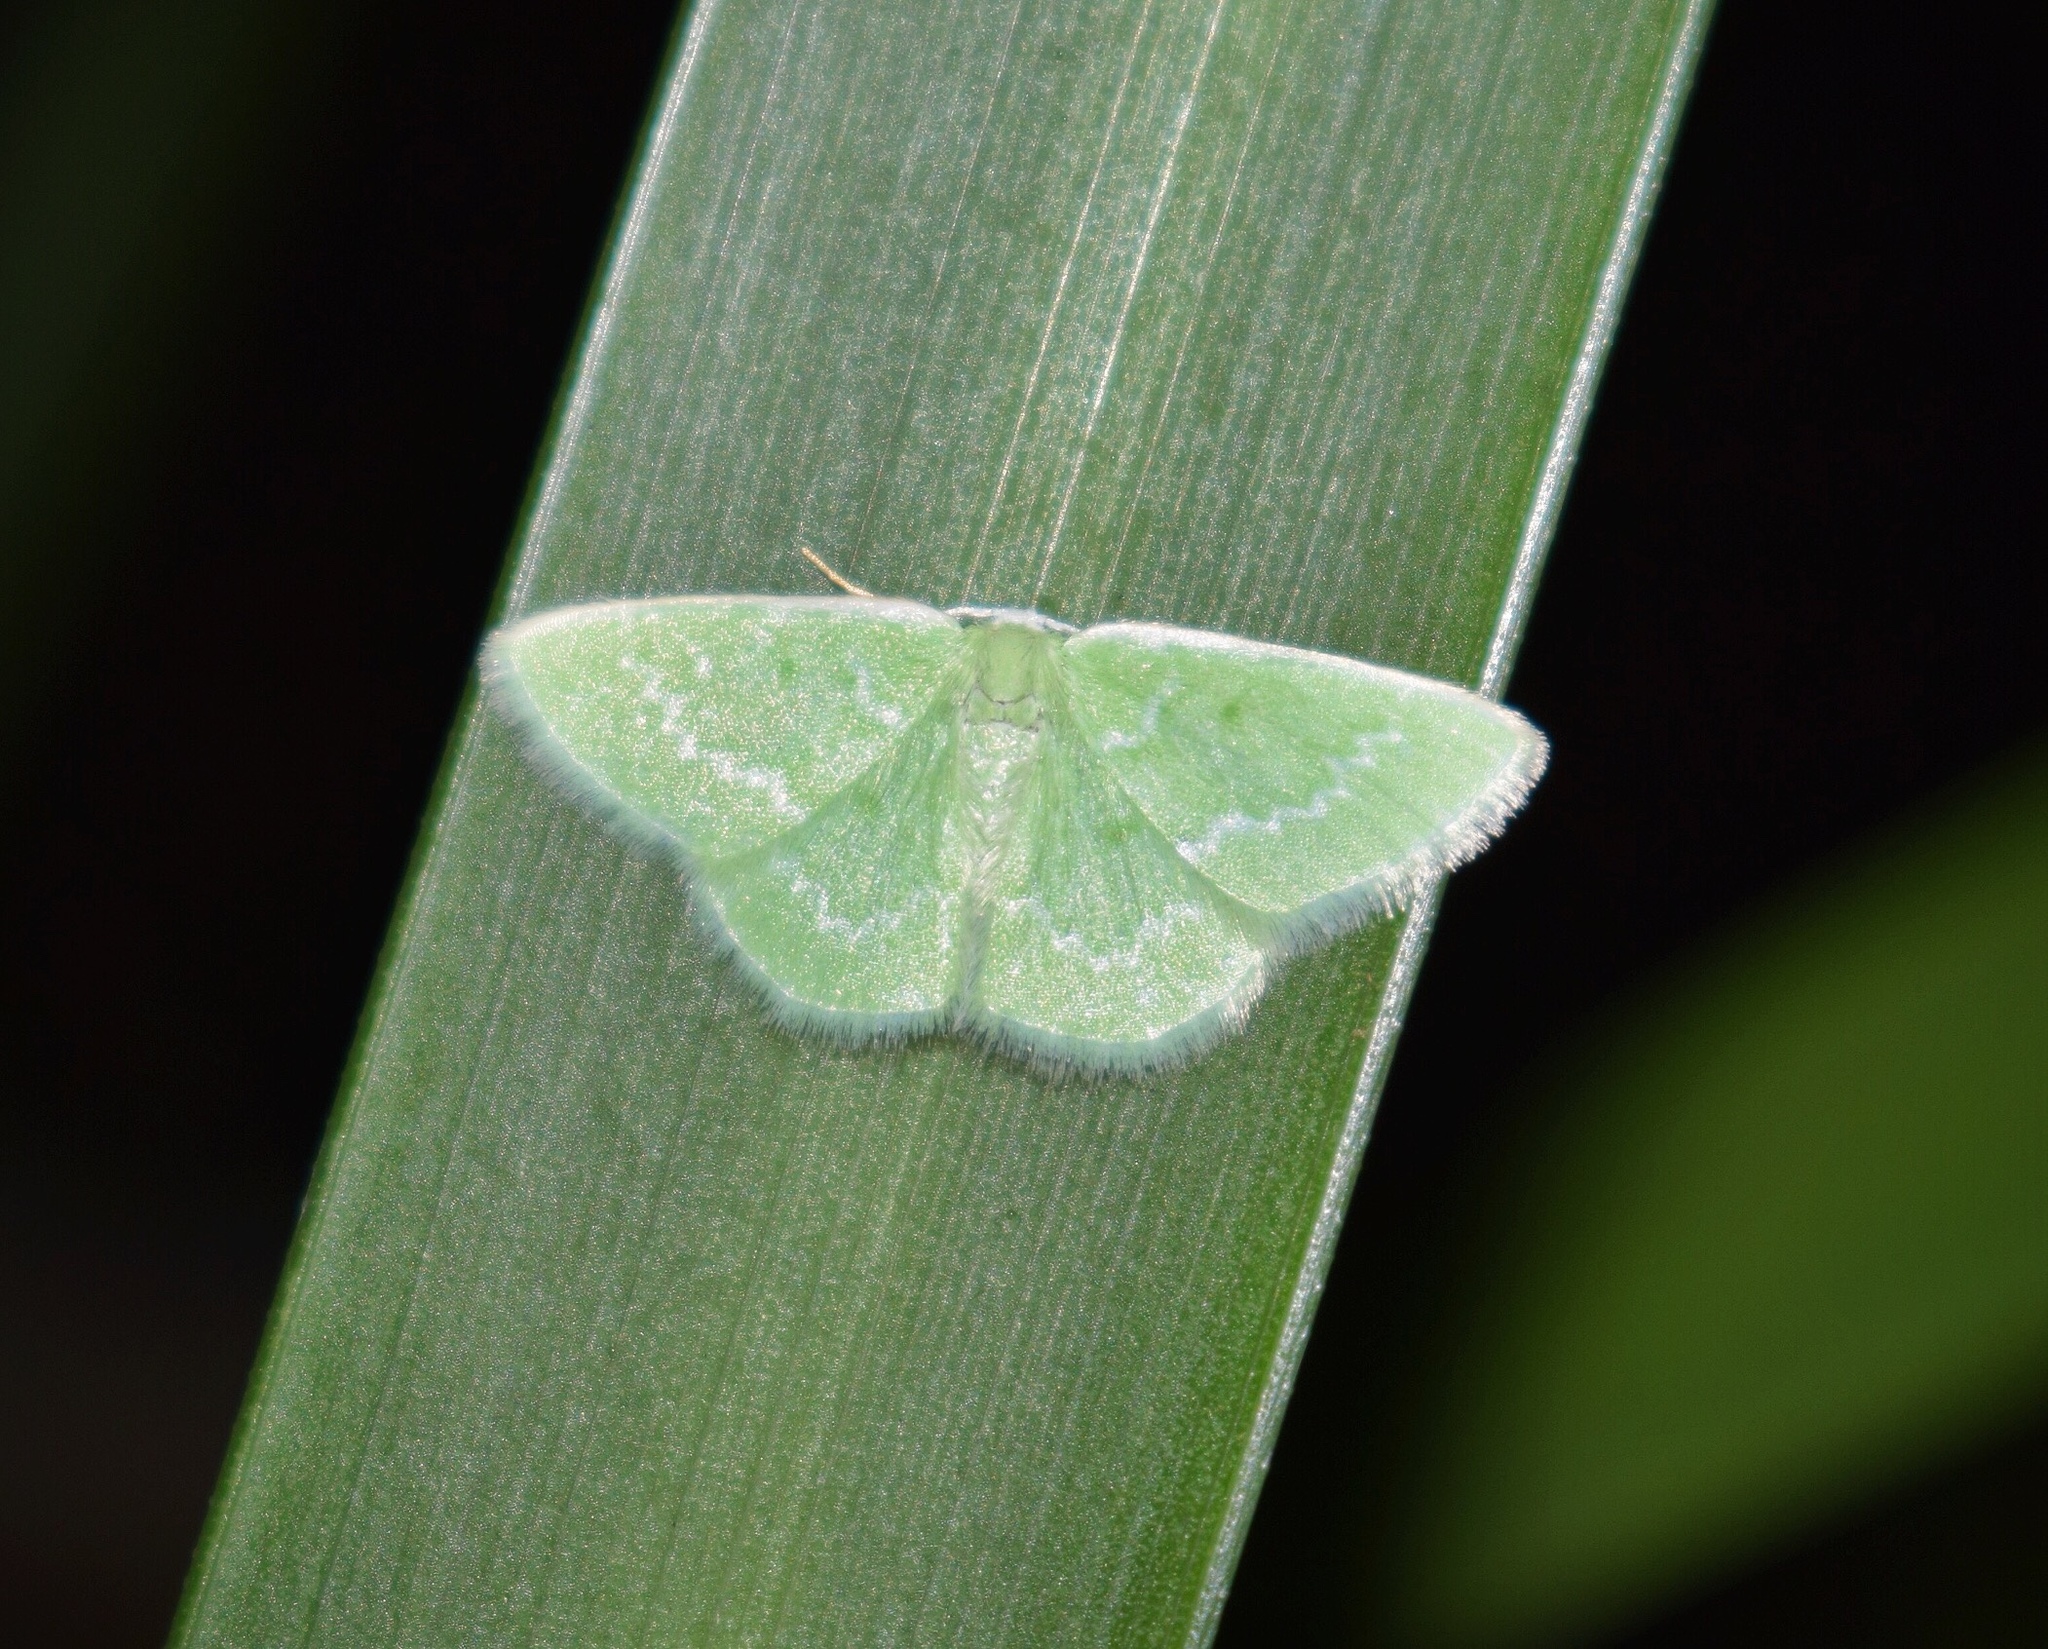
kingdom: Animalia
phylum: Arthropoda
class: Insecta
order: Lepidoptera
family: Geometridae
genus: Comostolopsis
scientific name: Comostolopsis germana
